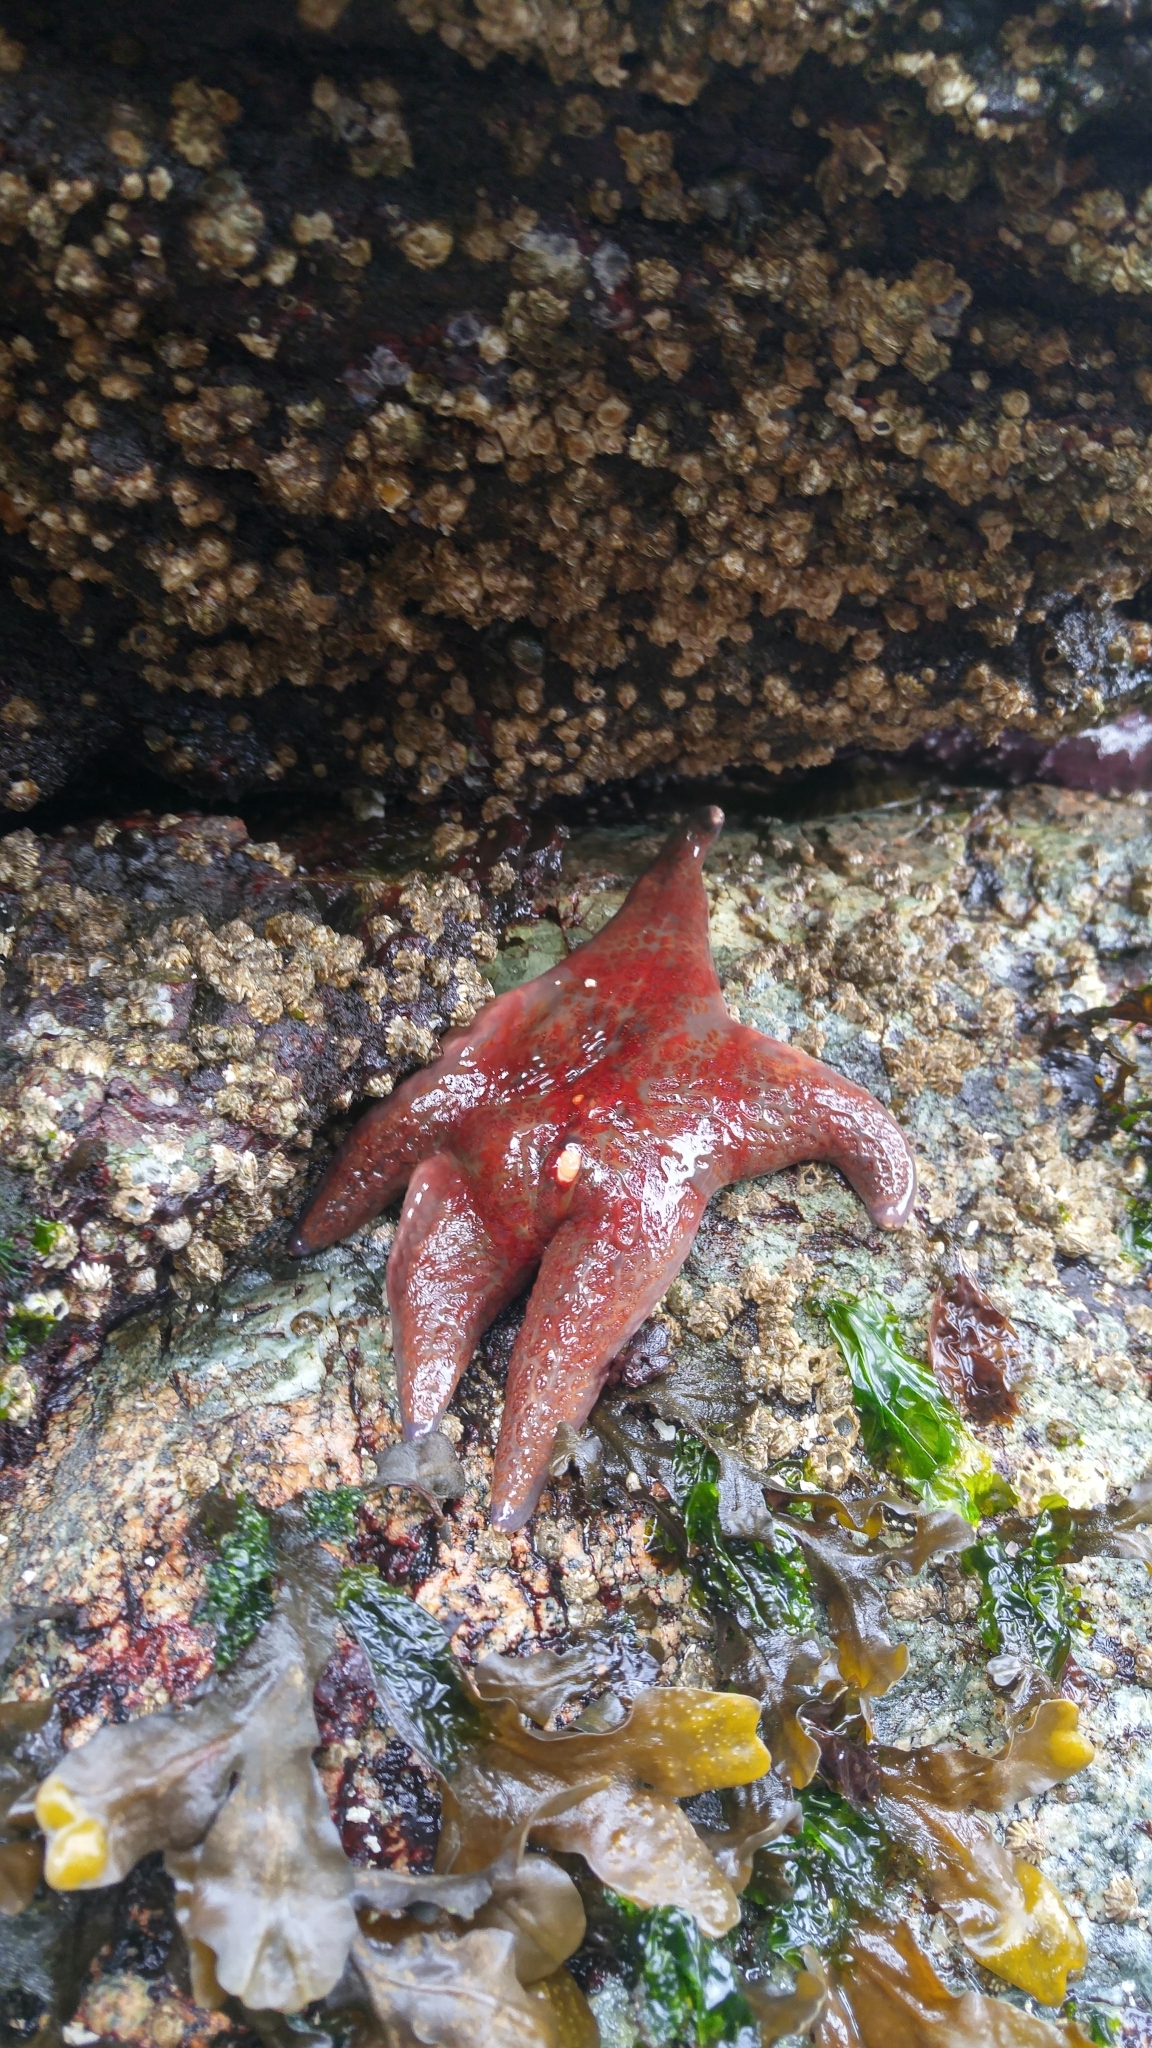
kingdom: Animalia
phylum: Echinodermata
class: Asteroidea
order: Valvatida
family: Asteropseidae
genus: Dermasterias
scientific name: Dermasterias imbricata
